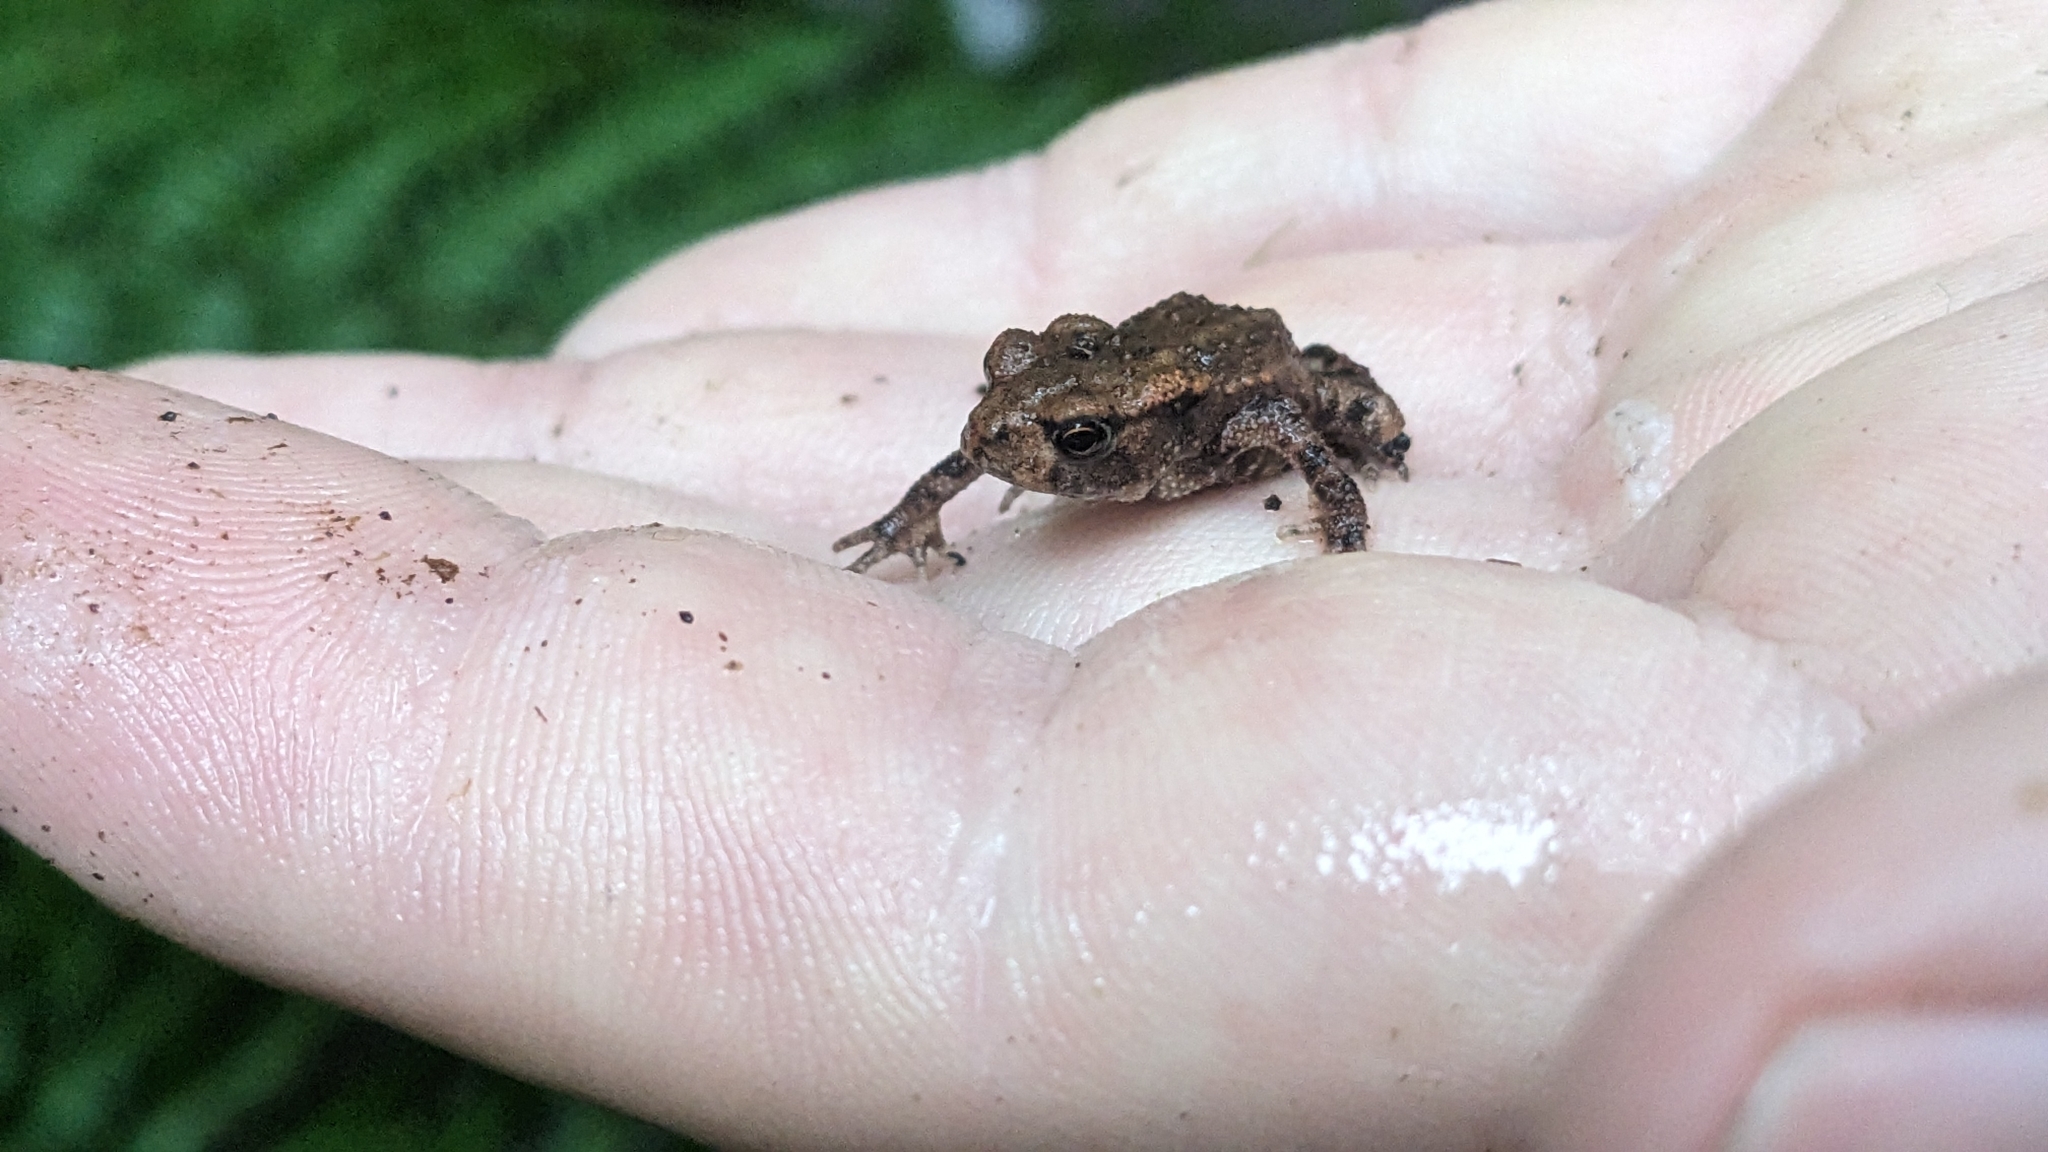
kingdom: Animalia
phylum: Chordata
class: Amphibia
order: Anura
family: Bufonidae
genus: Bufo
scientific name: Bufo bufo
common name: Common toad
